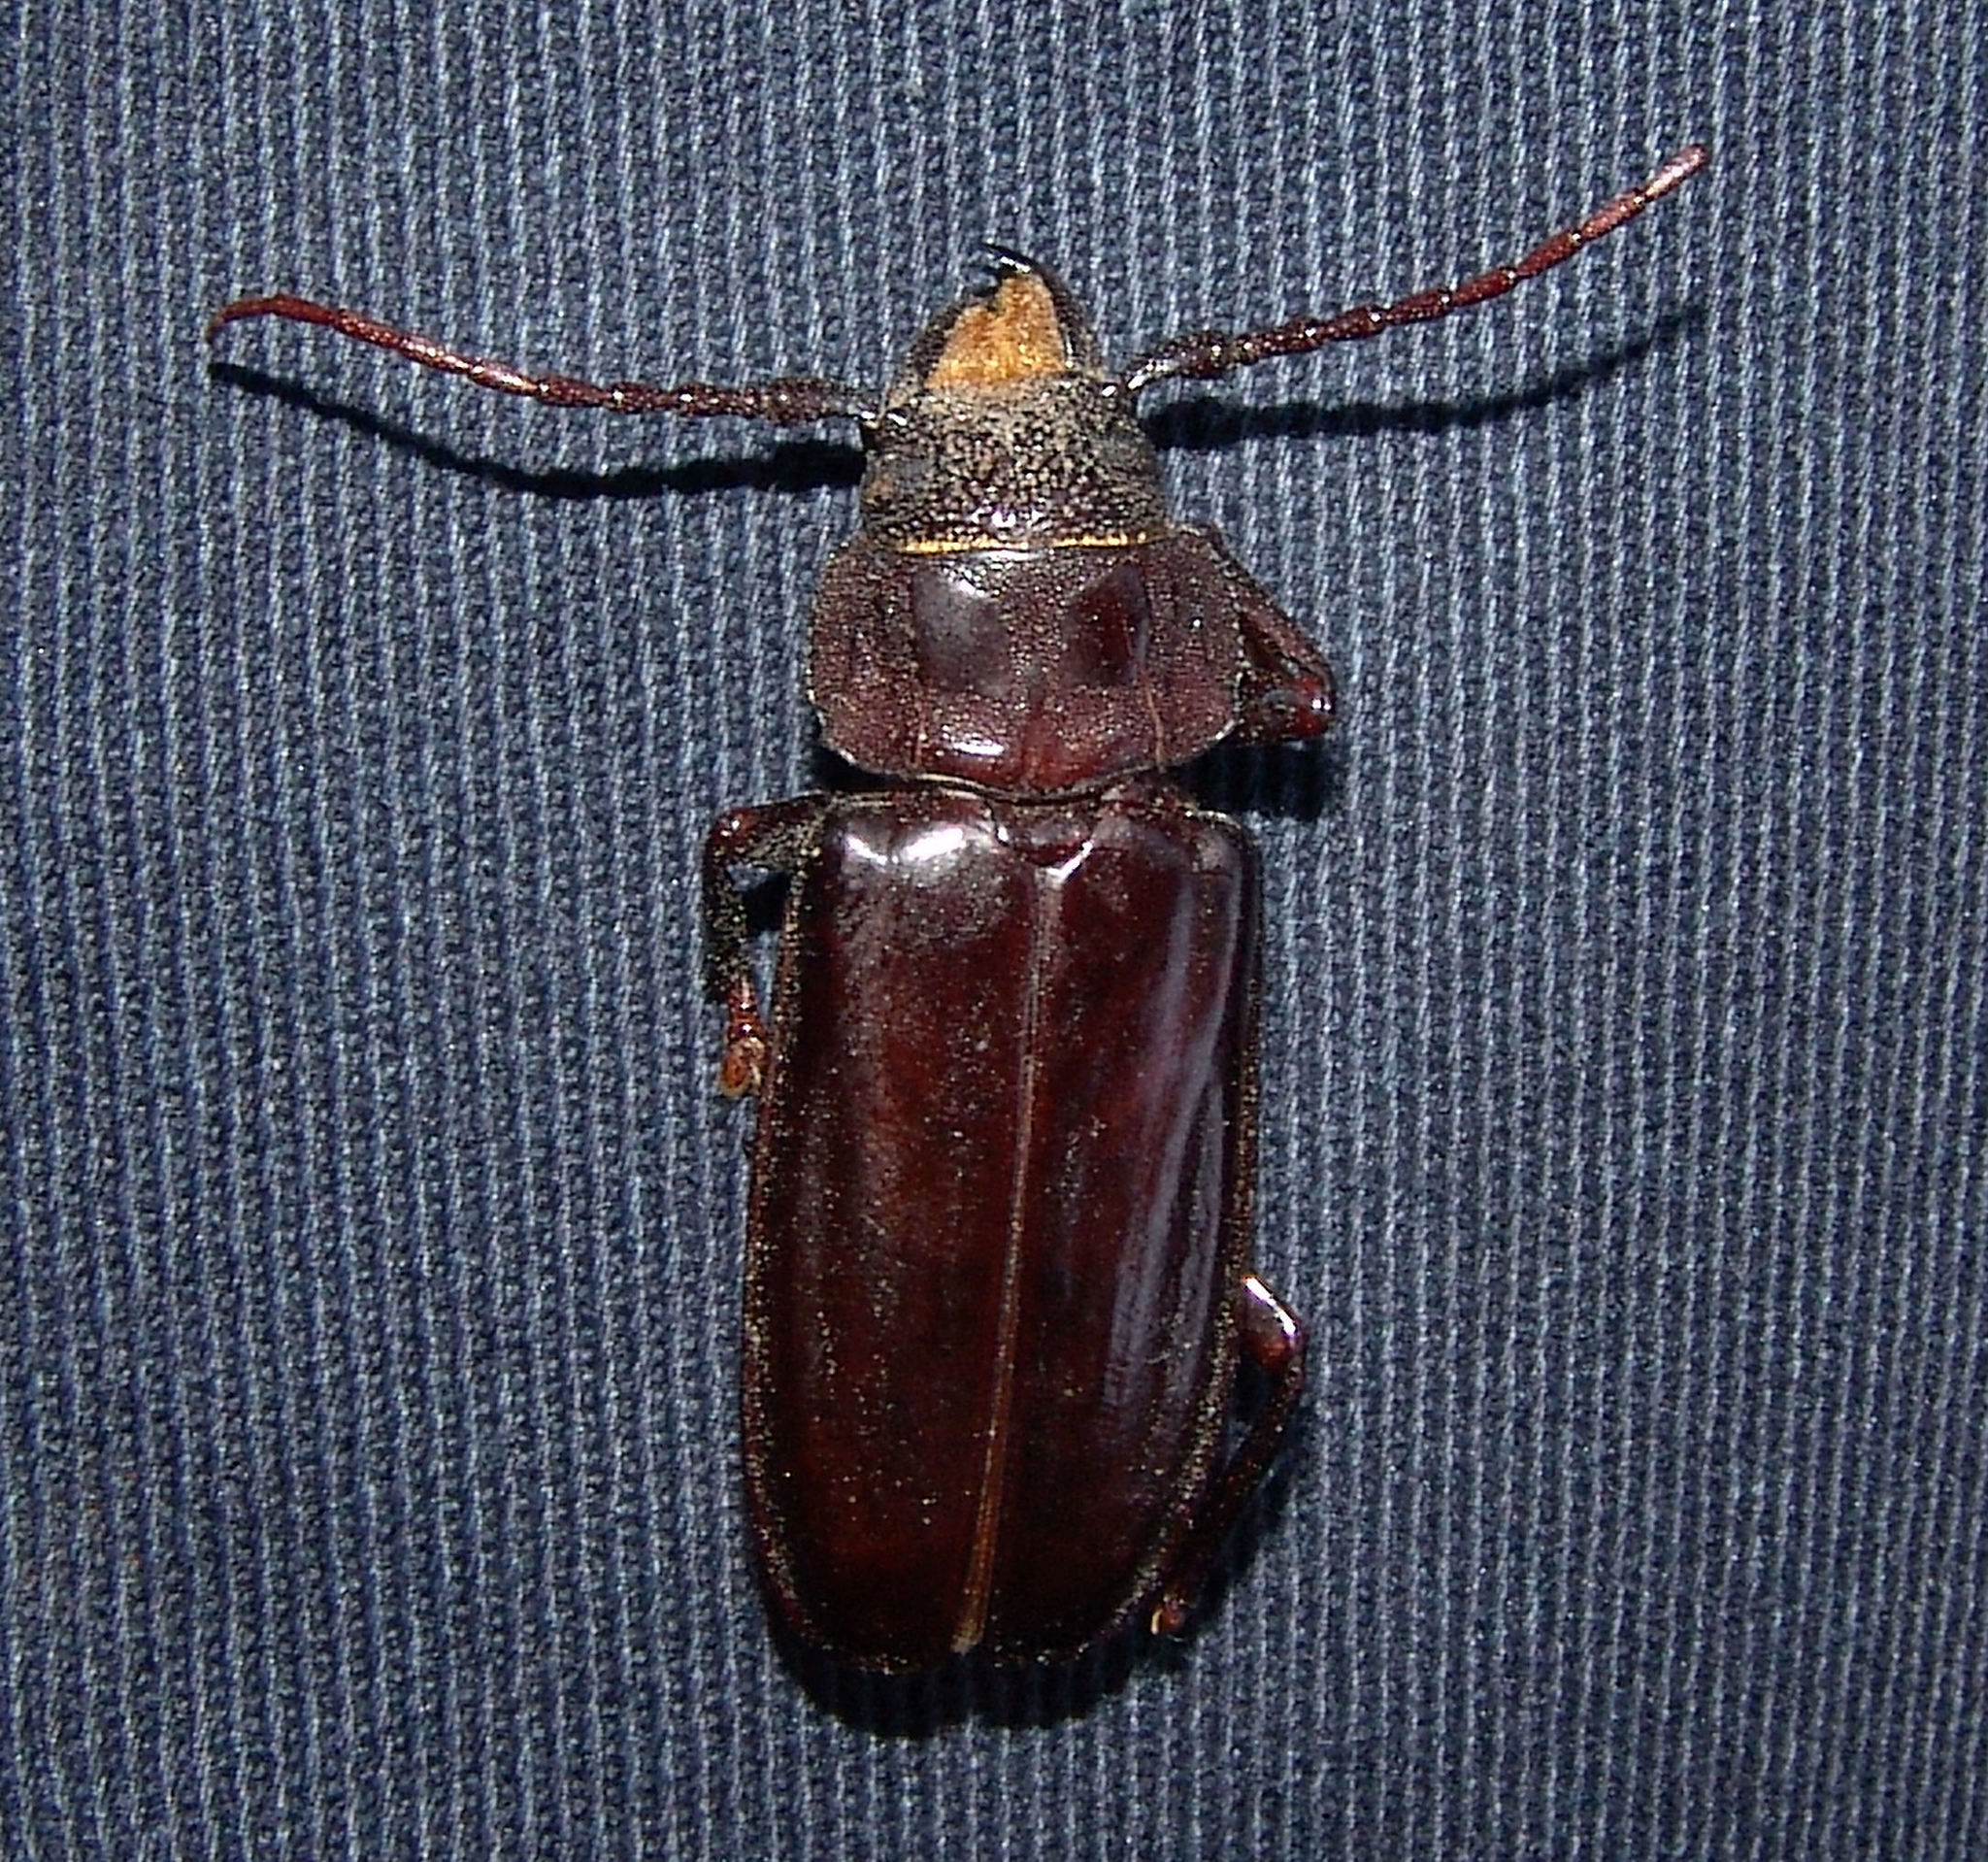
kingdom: Animalia
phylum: Arthropoda
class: Insecta
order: Coleoptera
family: Cerambycidae
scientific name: Cerambycidae
